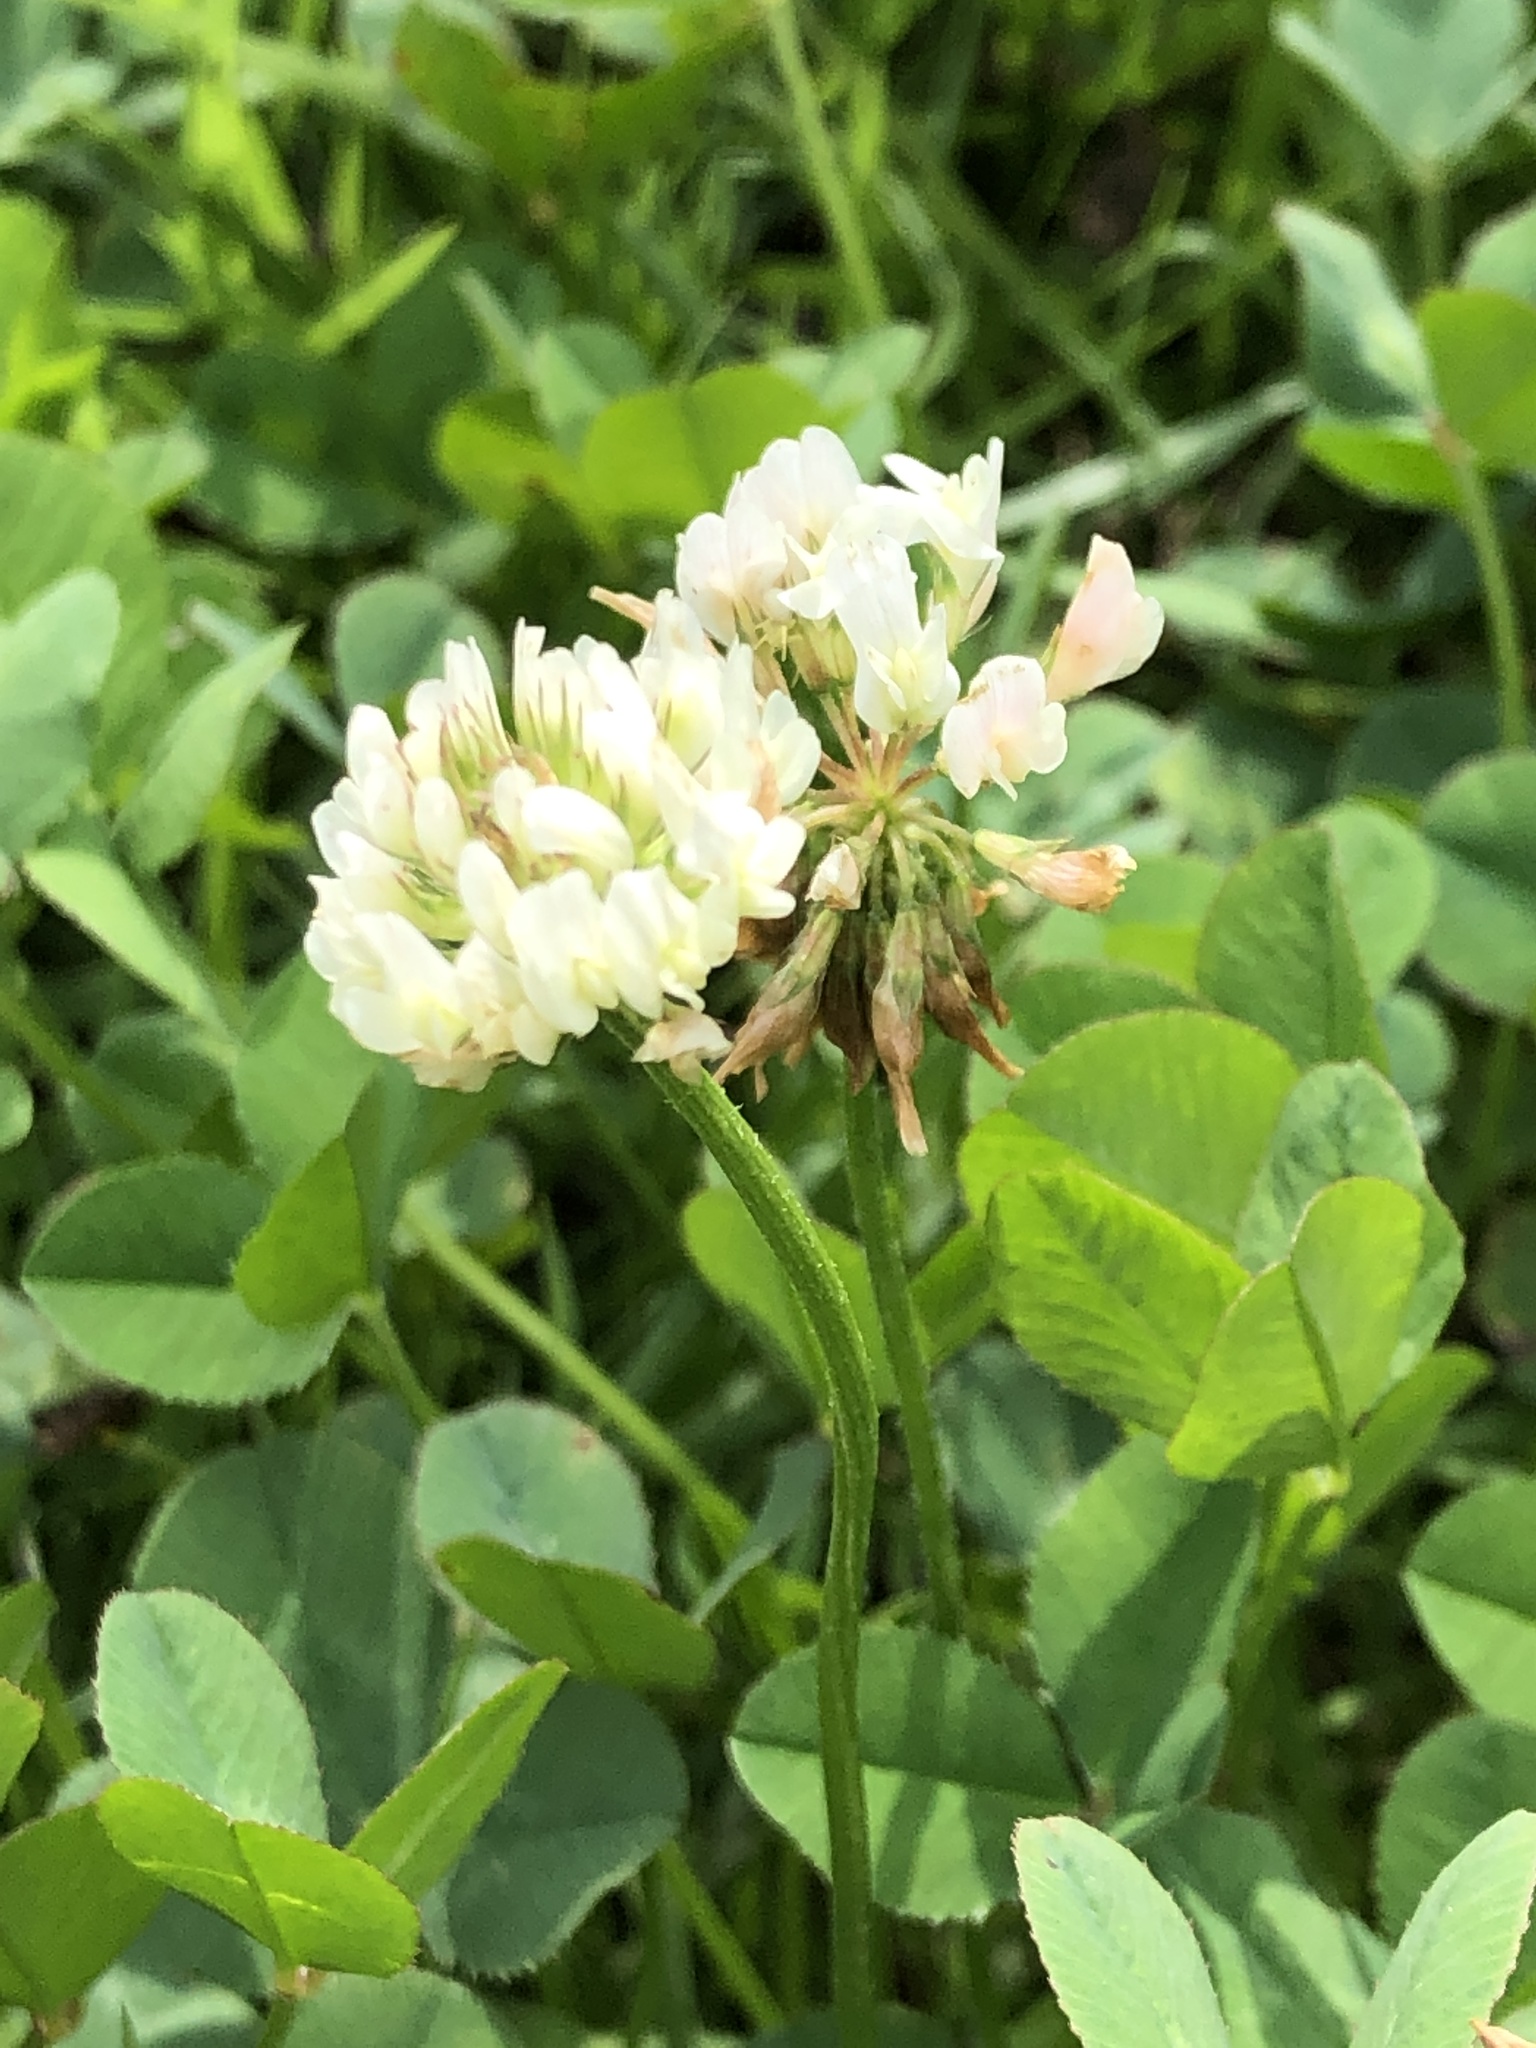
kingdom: Plantae
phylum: Tracheophyta
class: Magnoliopsida
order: Fabales
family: Fabaceae
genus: Trifolium
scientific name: Trifolium repens
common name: White clover
